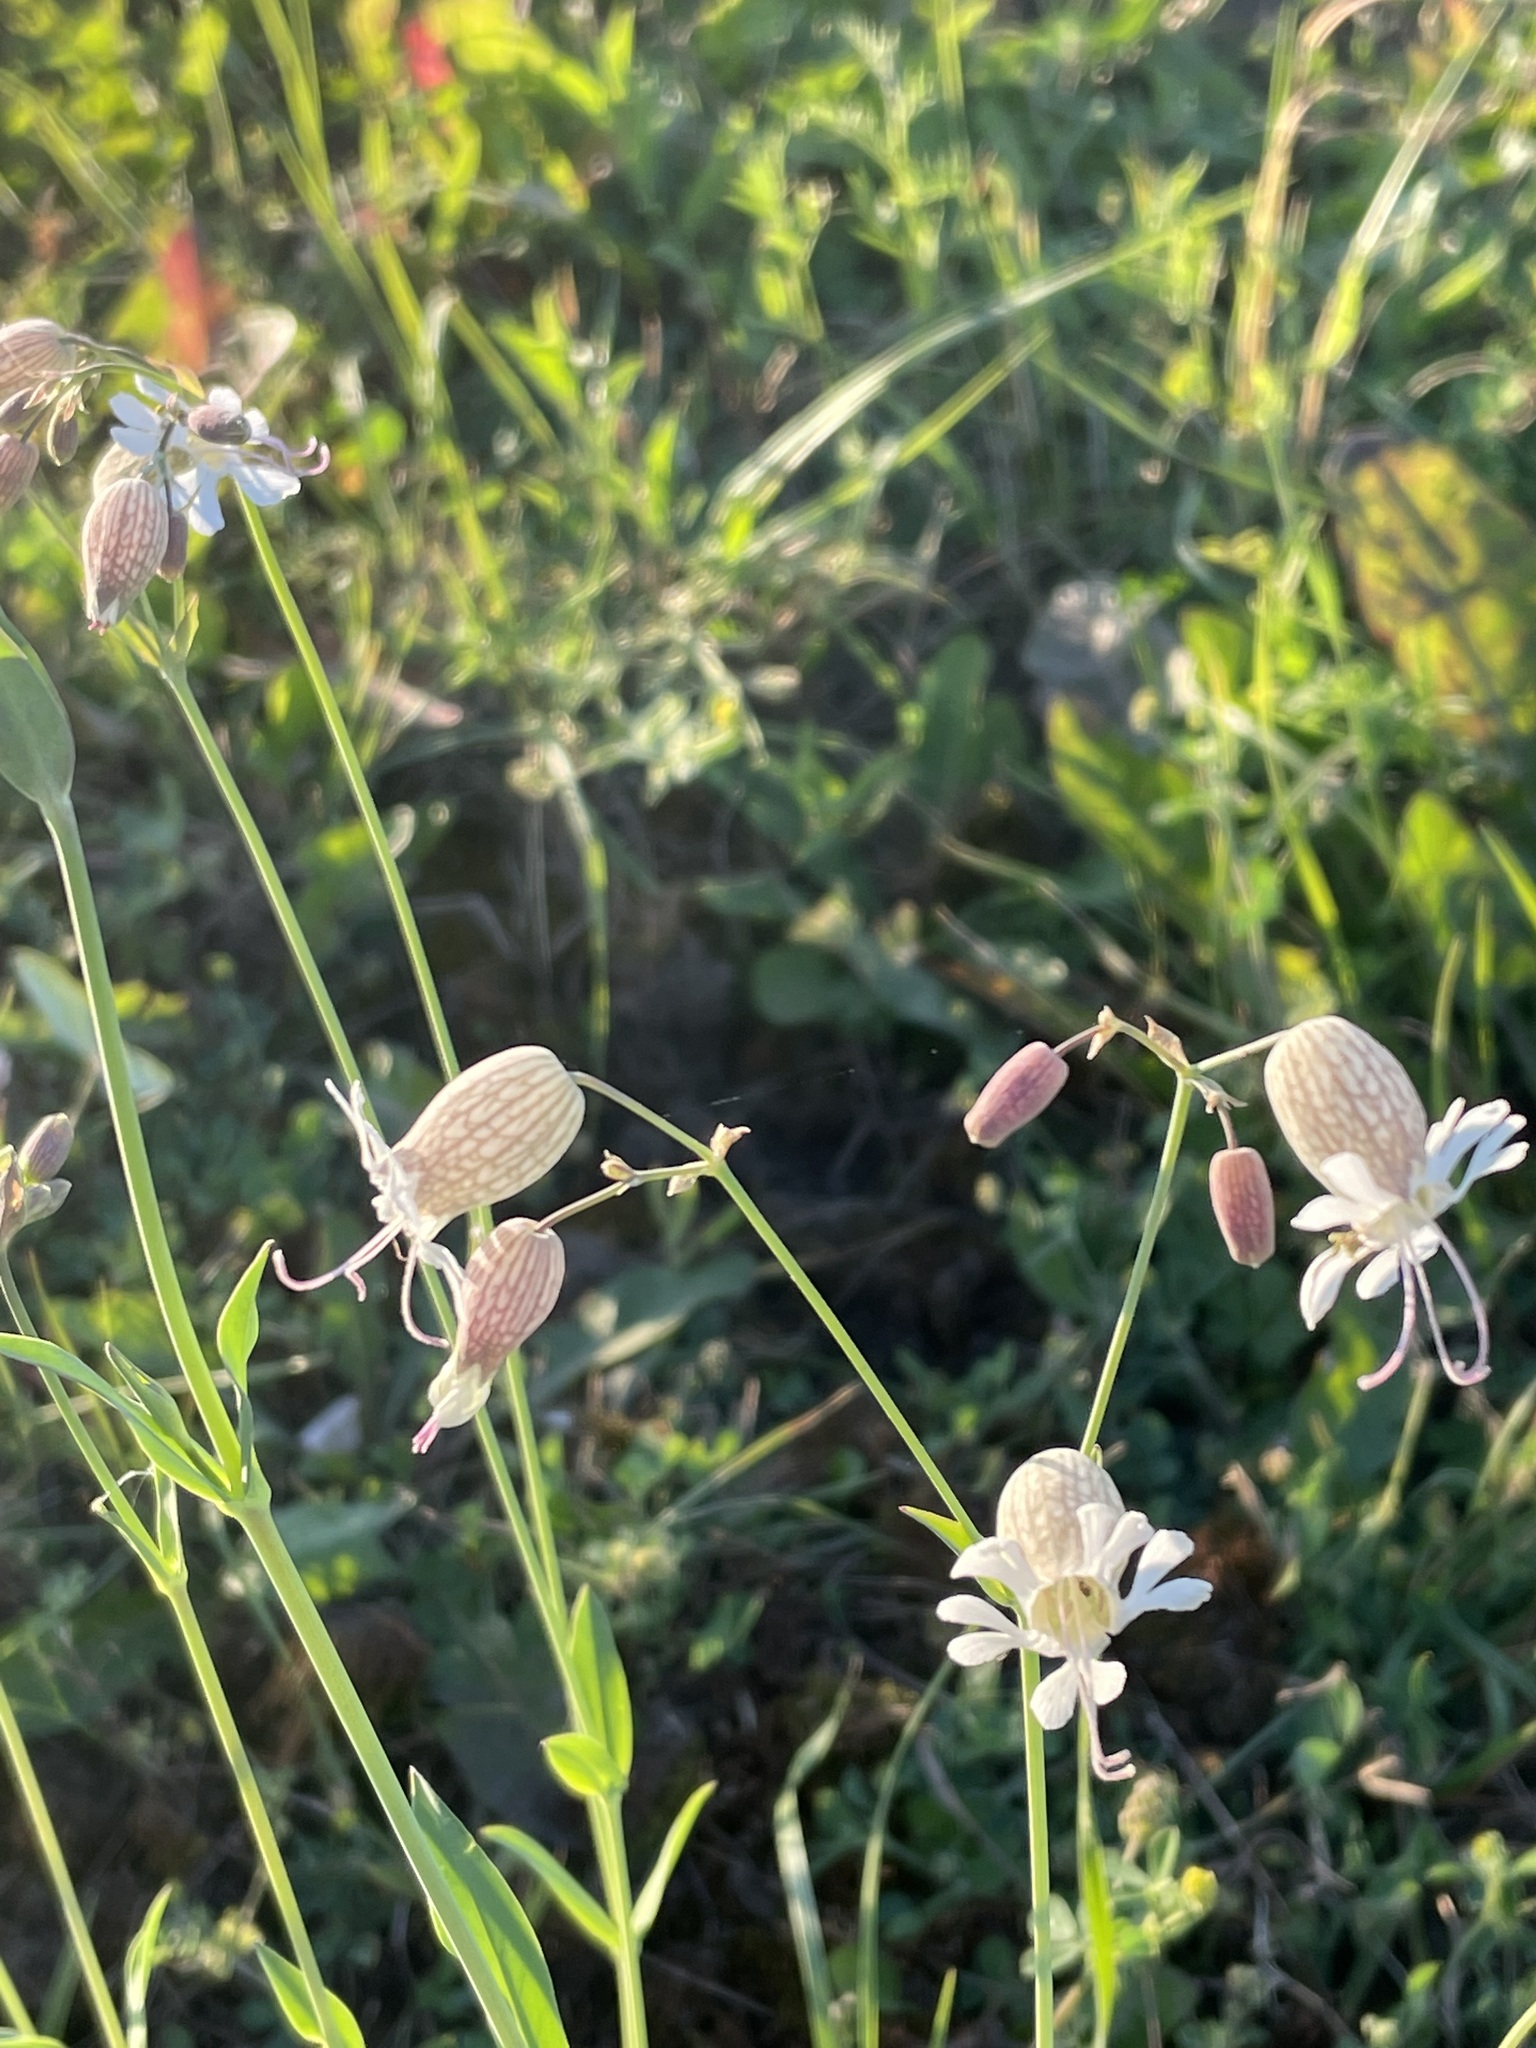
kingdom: Plantae
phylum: Tracheophyta
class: Magnoliopsida
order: Caryophyllales
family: Caryophyllaceae
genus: Silene
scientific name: Silene vulgaris
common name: Bladder campion
